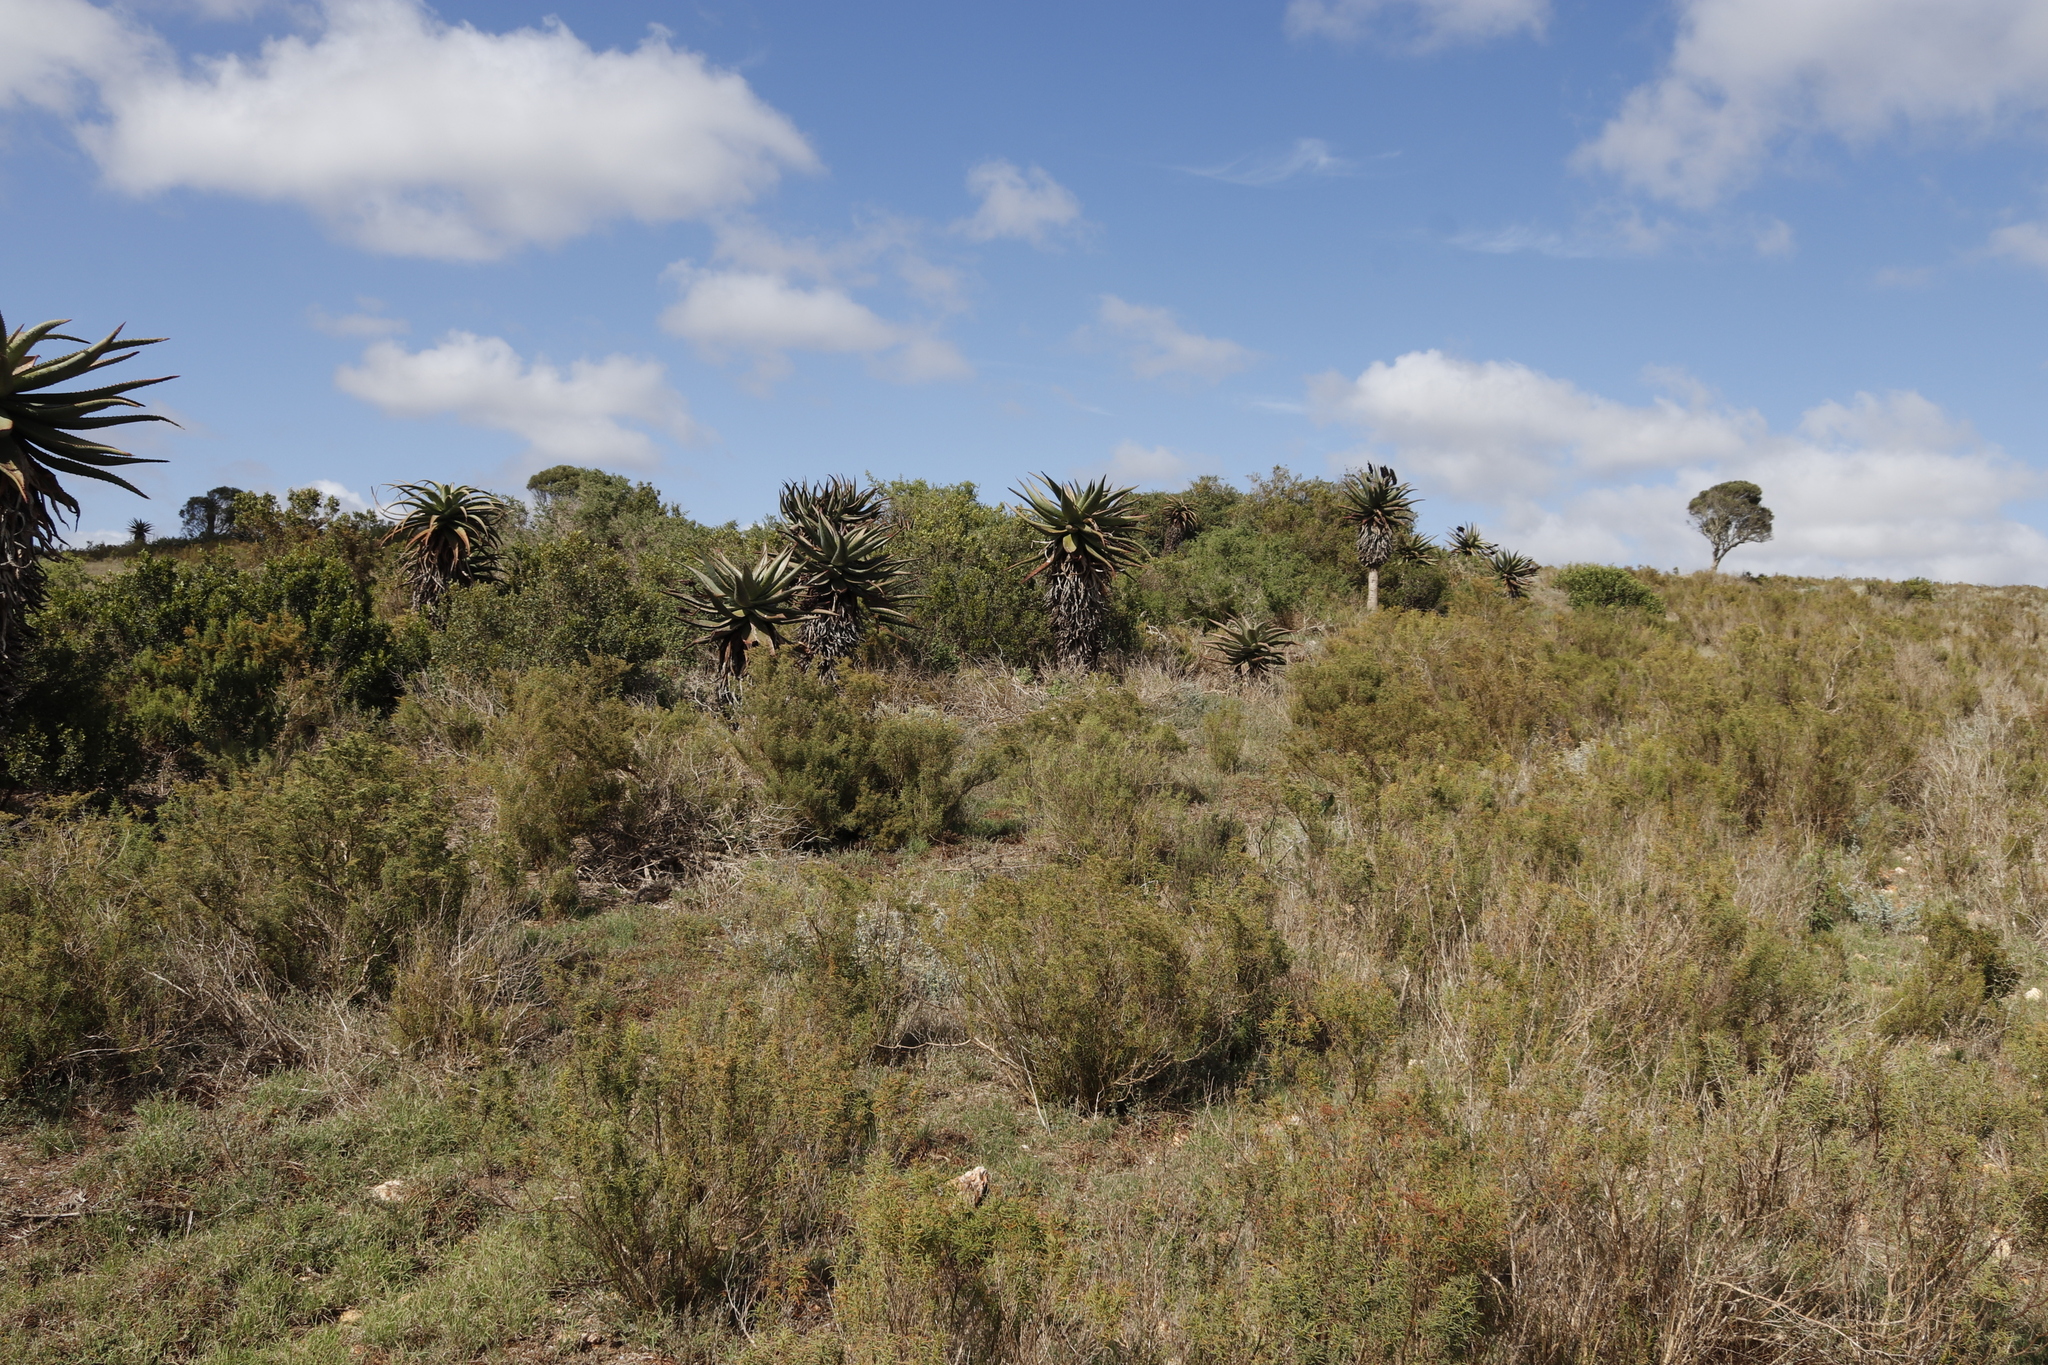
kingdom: Plantae
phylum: Tracheophyta
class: Liliopsida
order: Asparagales
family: Asphodelaceae
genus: Aloe
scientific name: Aloe ferox
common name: Bitter aloe
